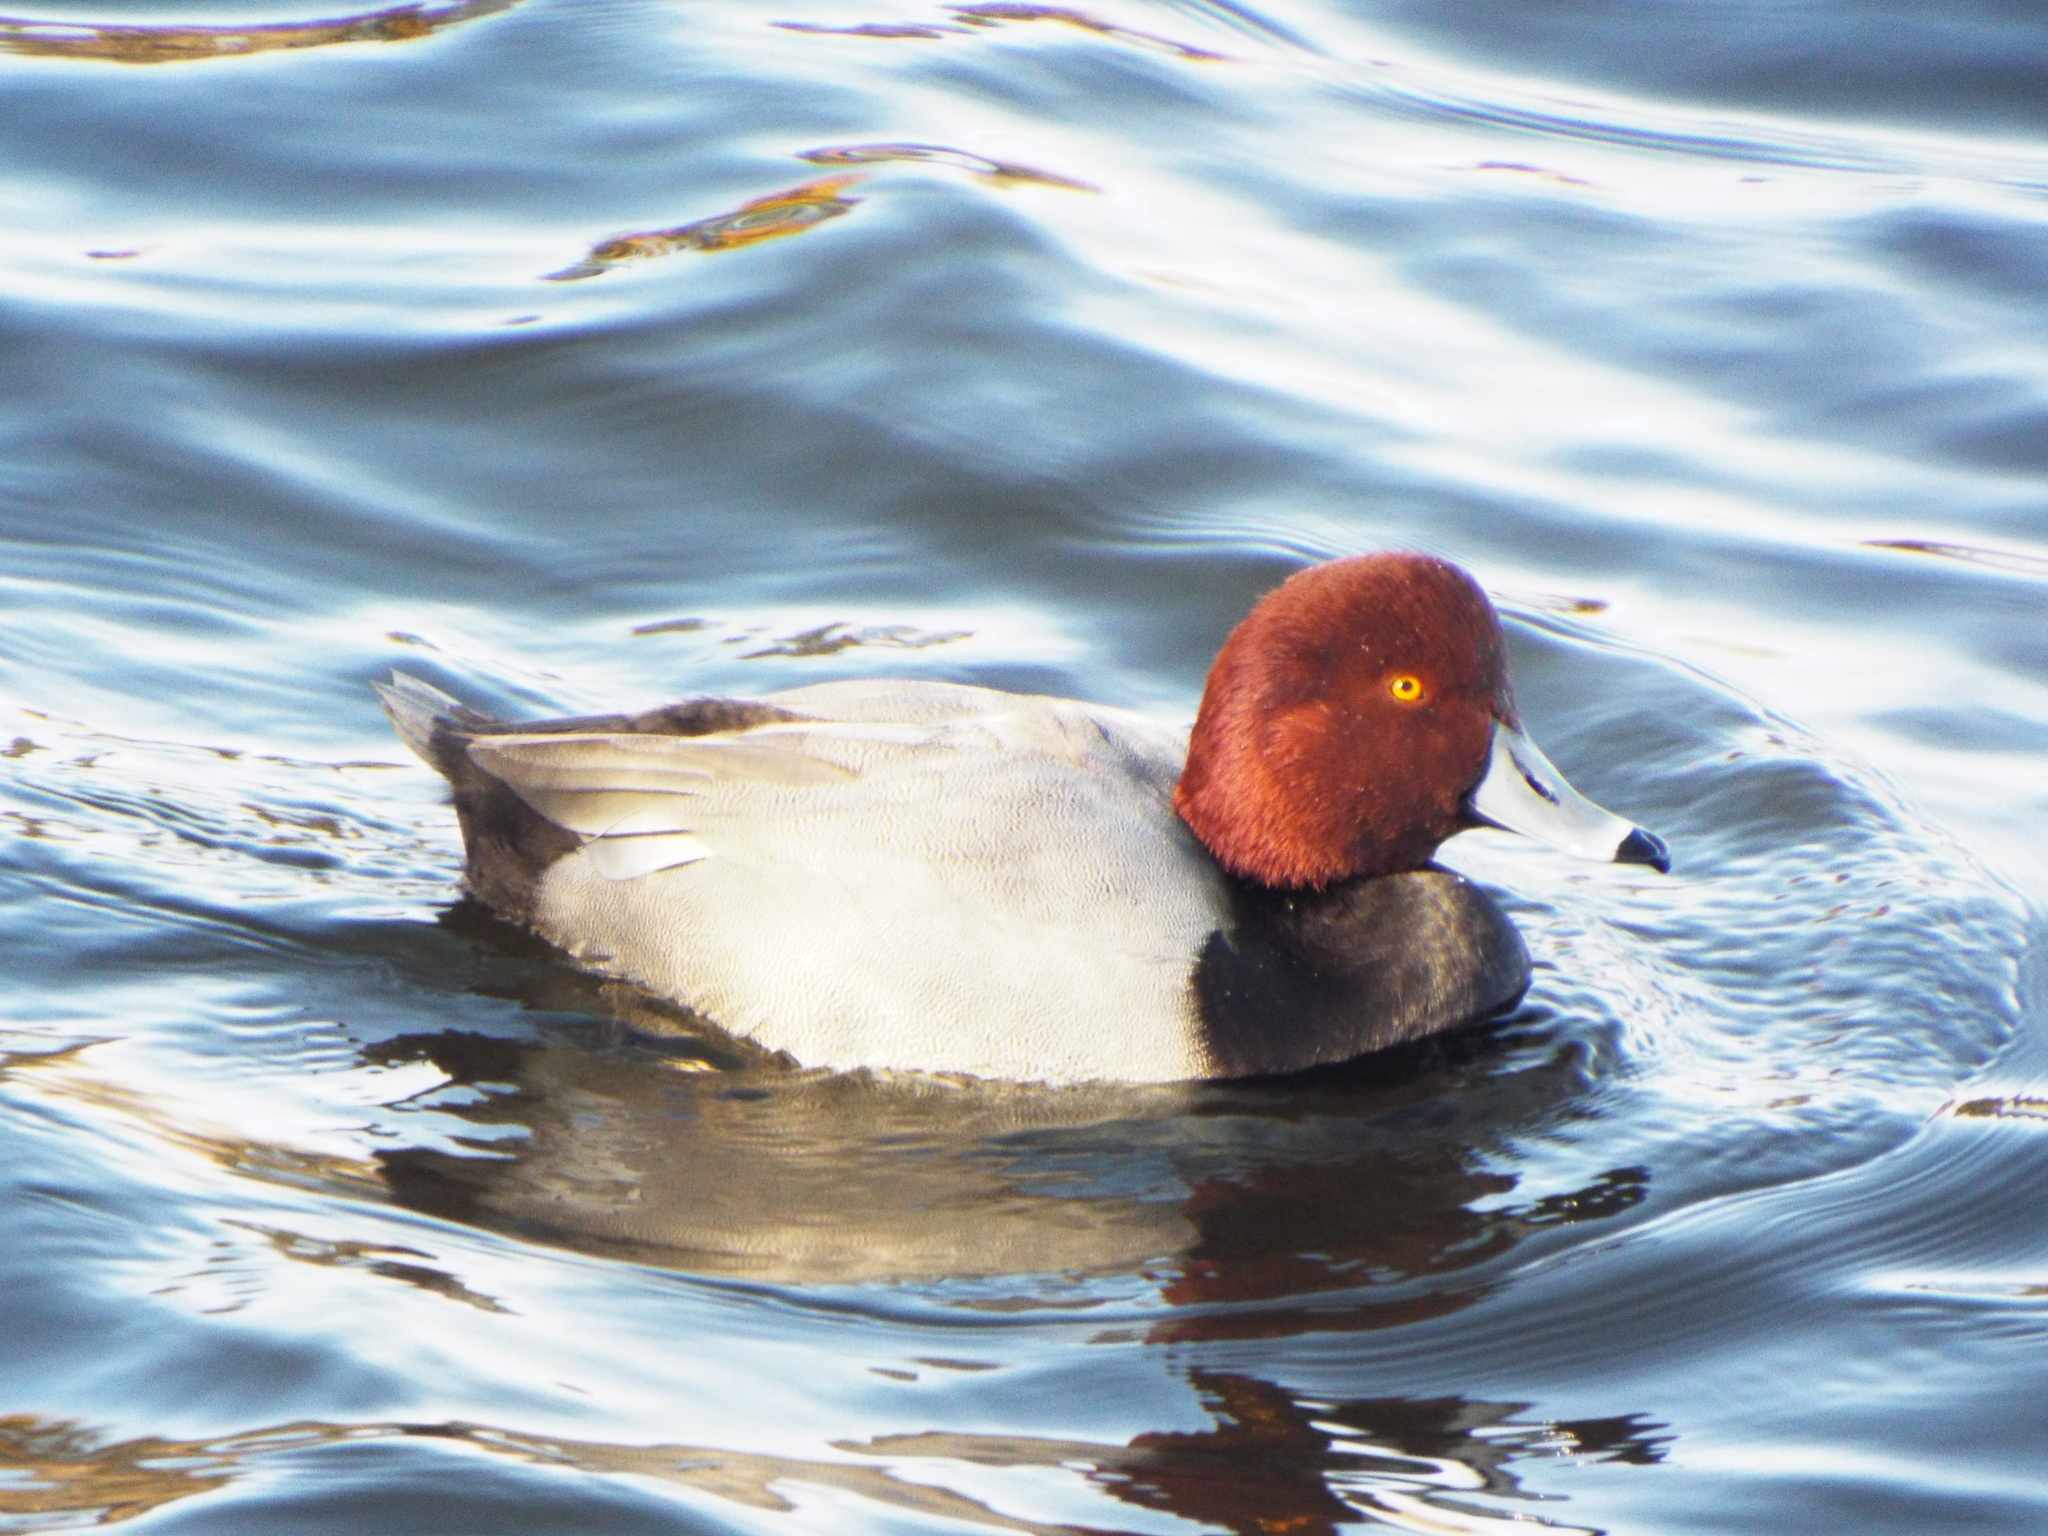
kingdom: Animalia
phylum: Chordata
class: Aves
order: Anseriformes
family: Anatidae
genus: Aythya
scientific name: Aythya americana
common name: Redhead
